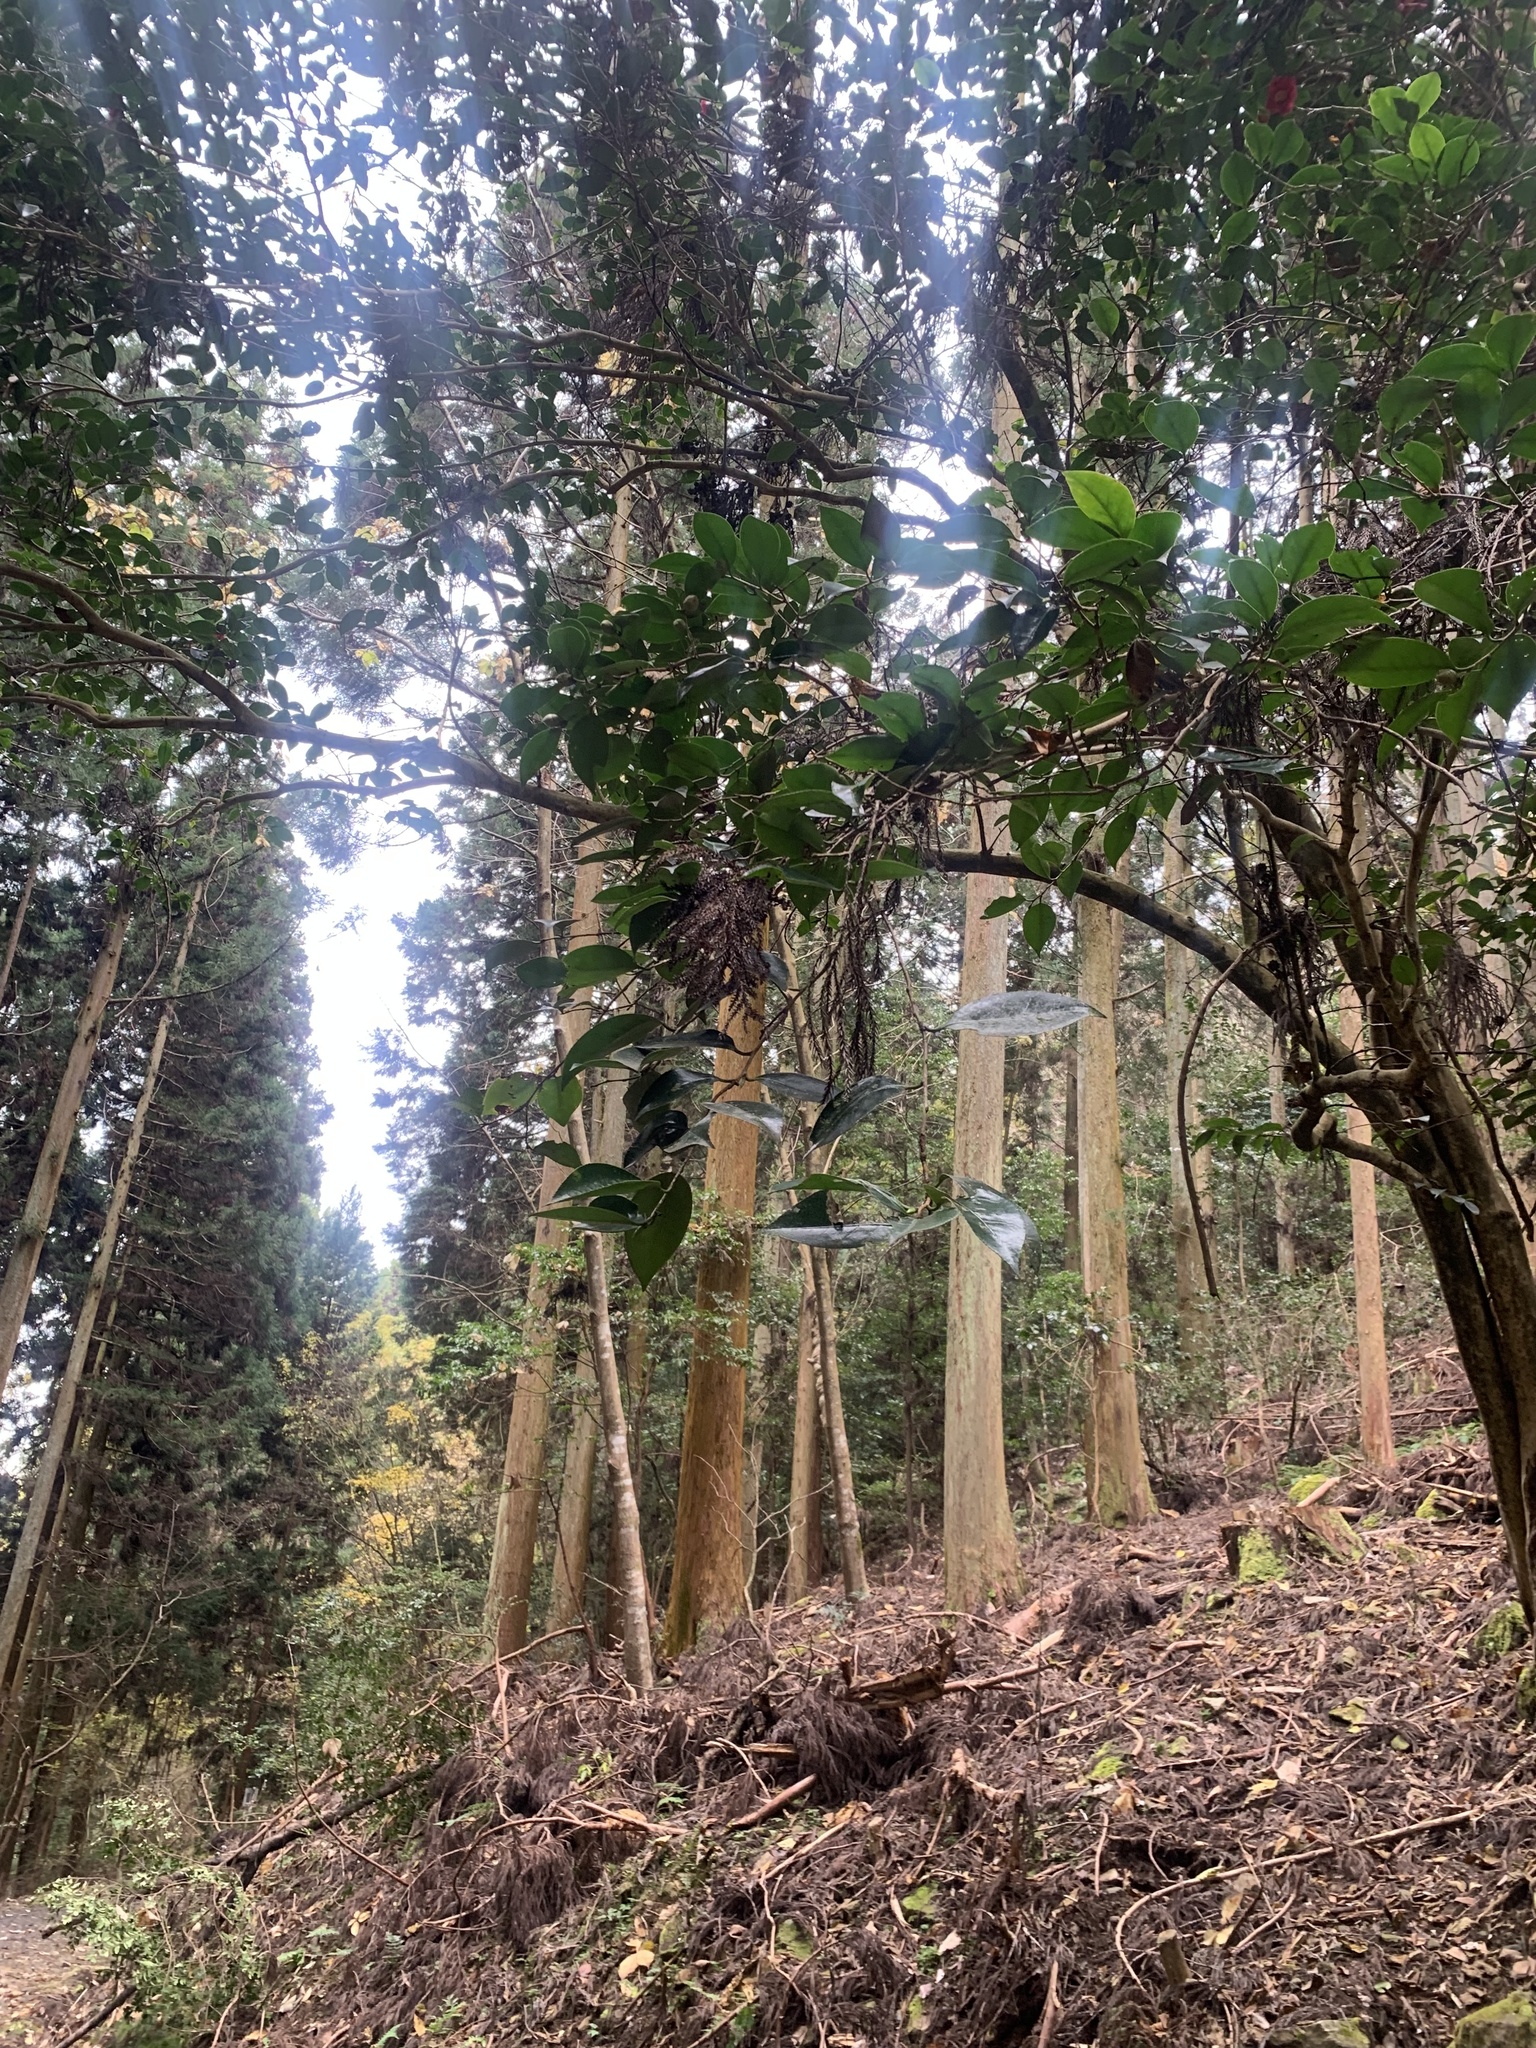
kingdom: Plantae
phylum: Tracheophyta
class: Magnoliopsida
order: Ericales
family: Theaceae
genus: Camellia
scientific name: Camellia japonica
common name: Camellia
